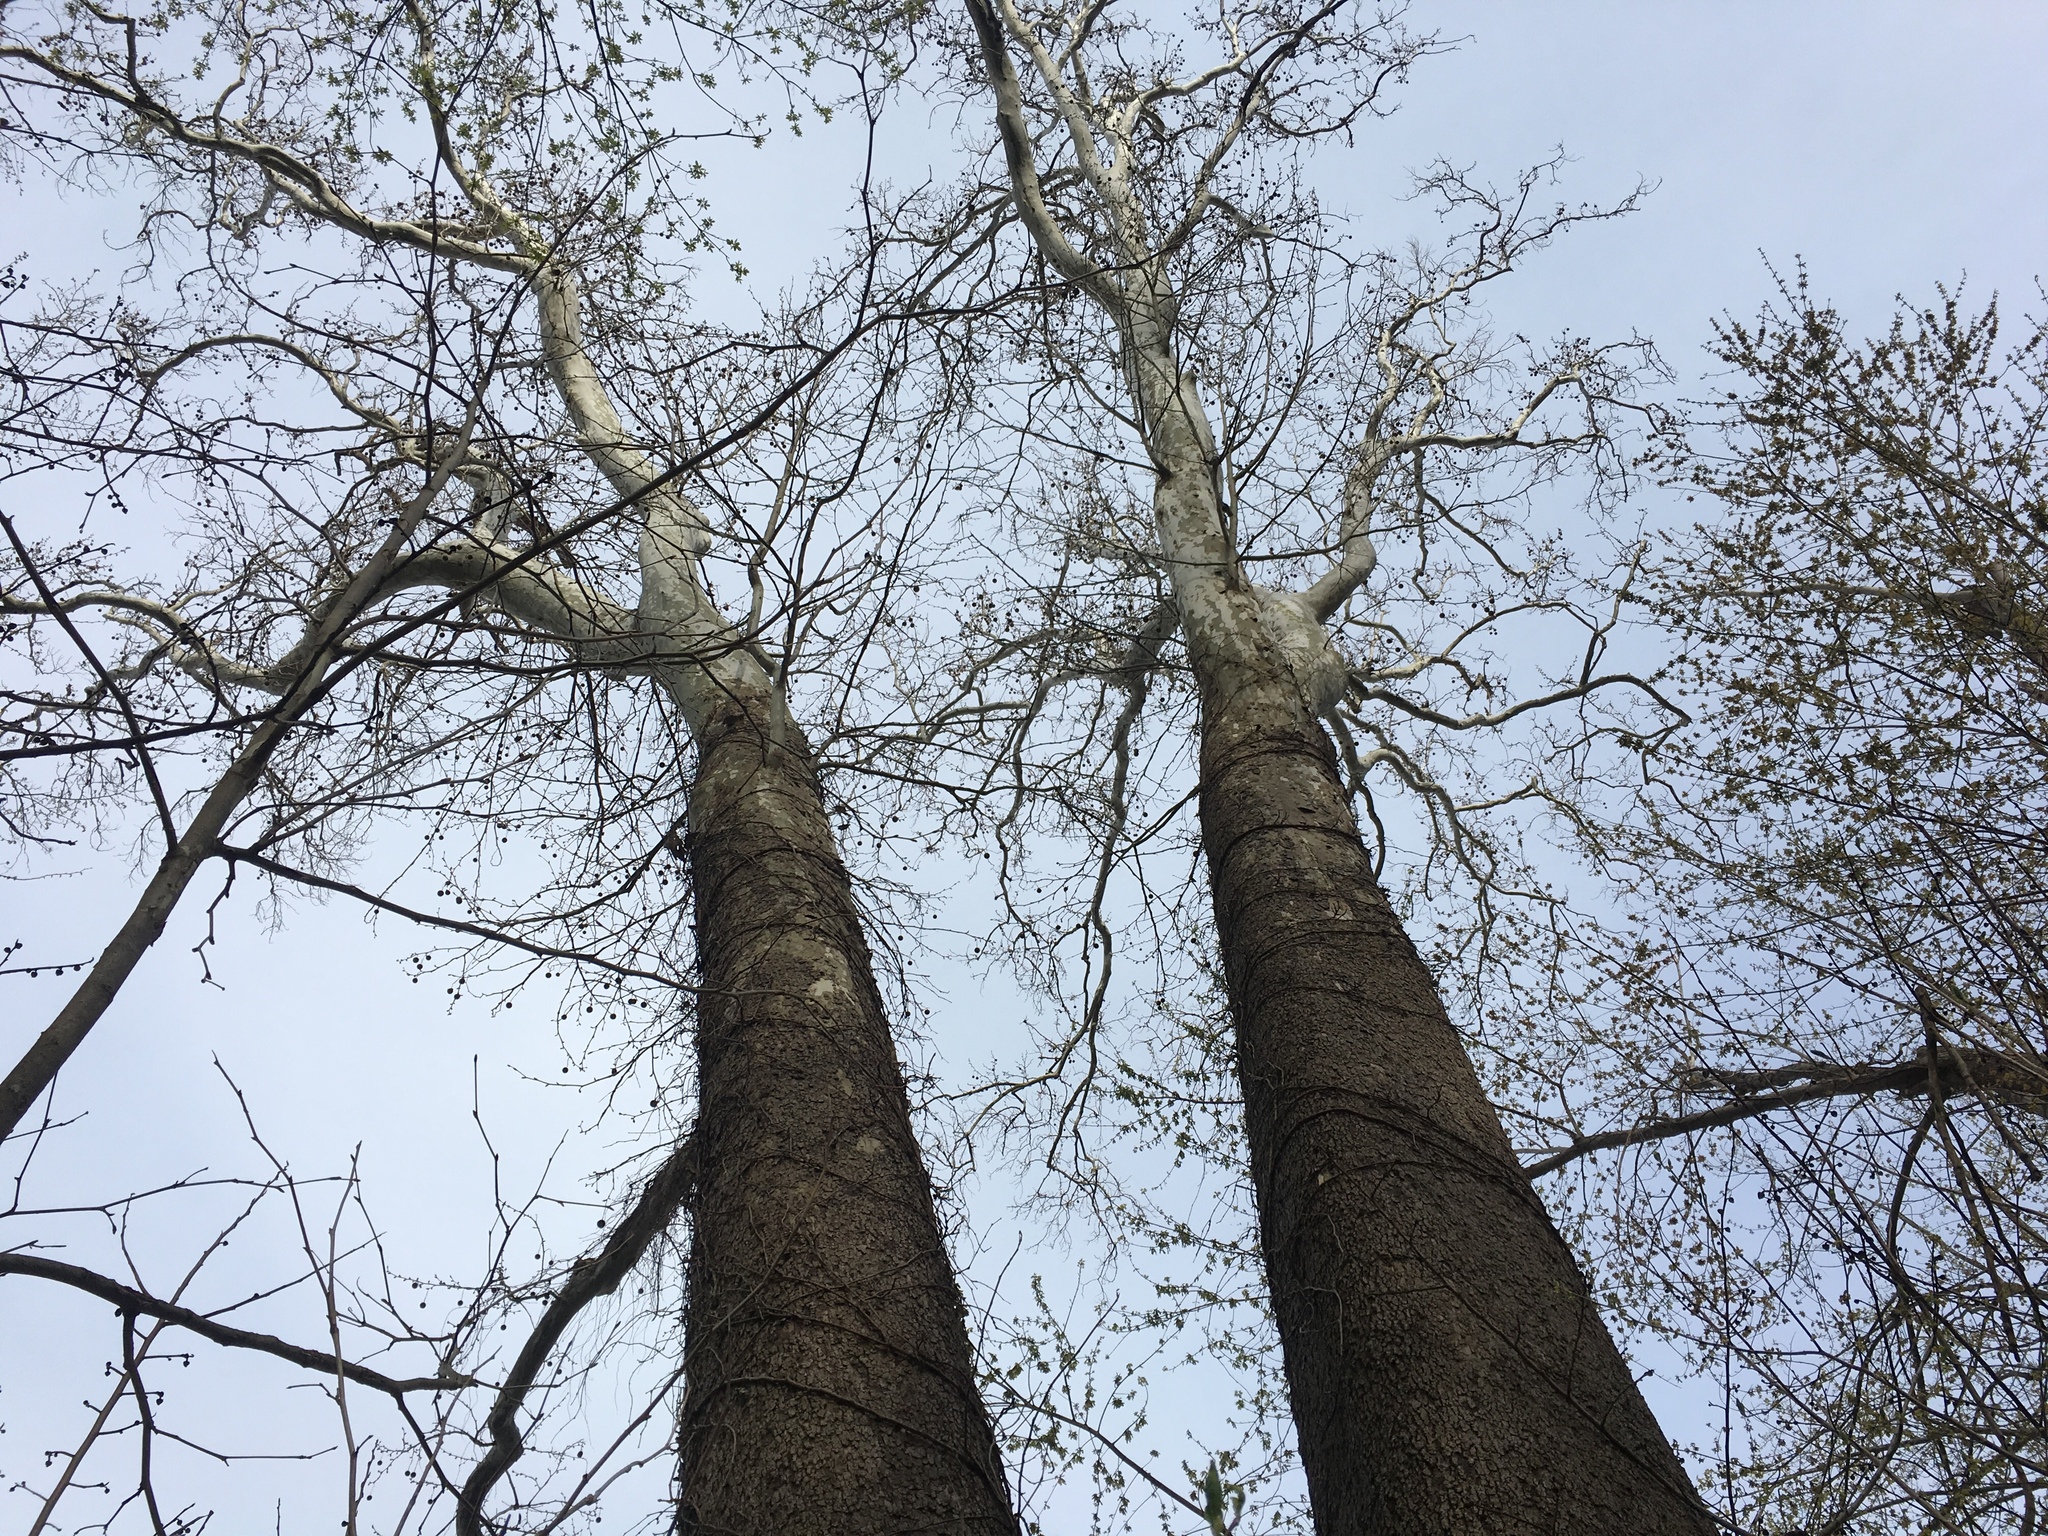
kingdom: Plantae
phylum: Tracheophyta
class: Magnoliopsida
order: Proteales
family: Platanaceae
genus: Platanus
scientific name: Platanus occidentalis
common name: American sycamore
